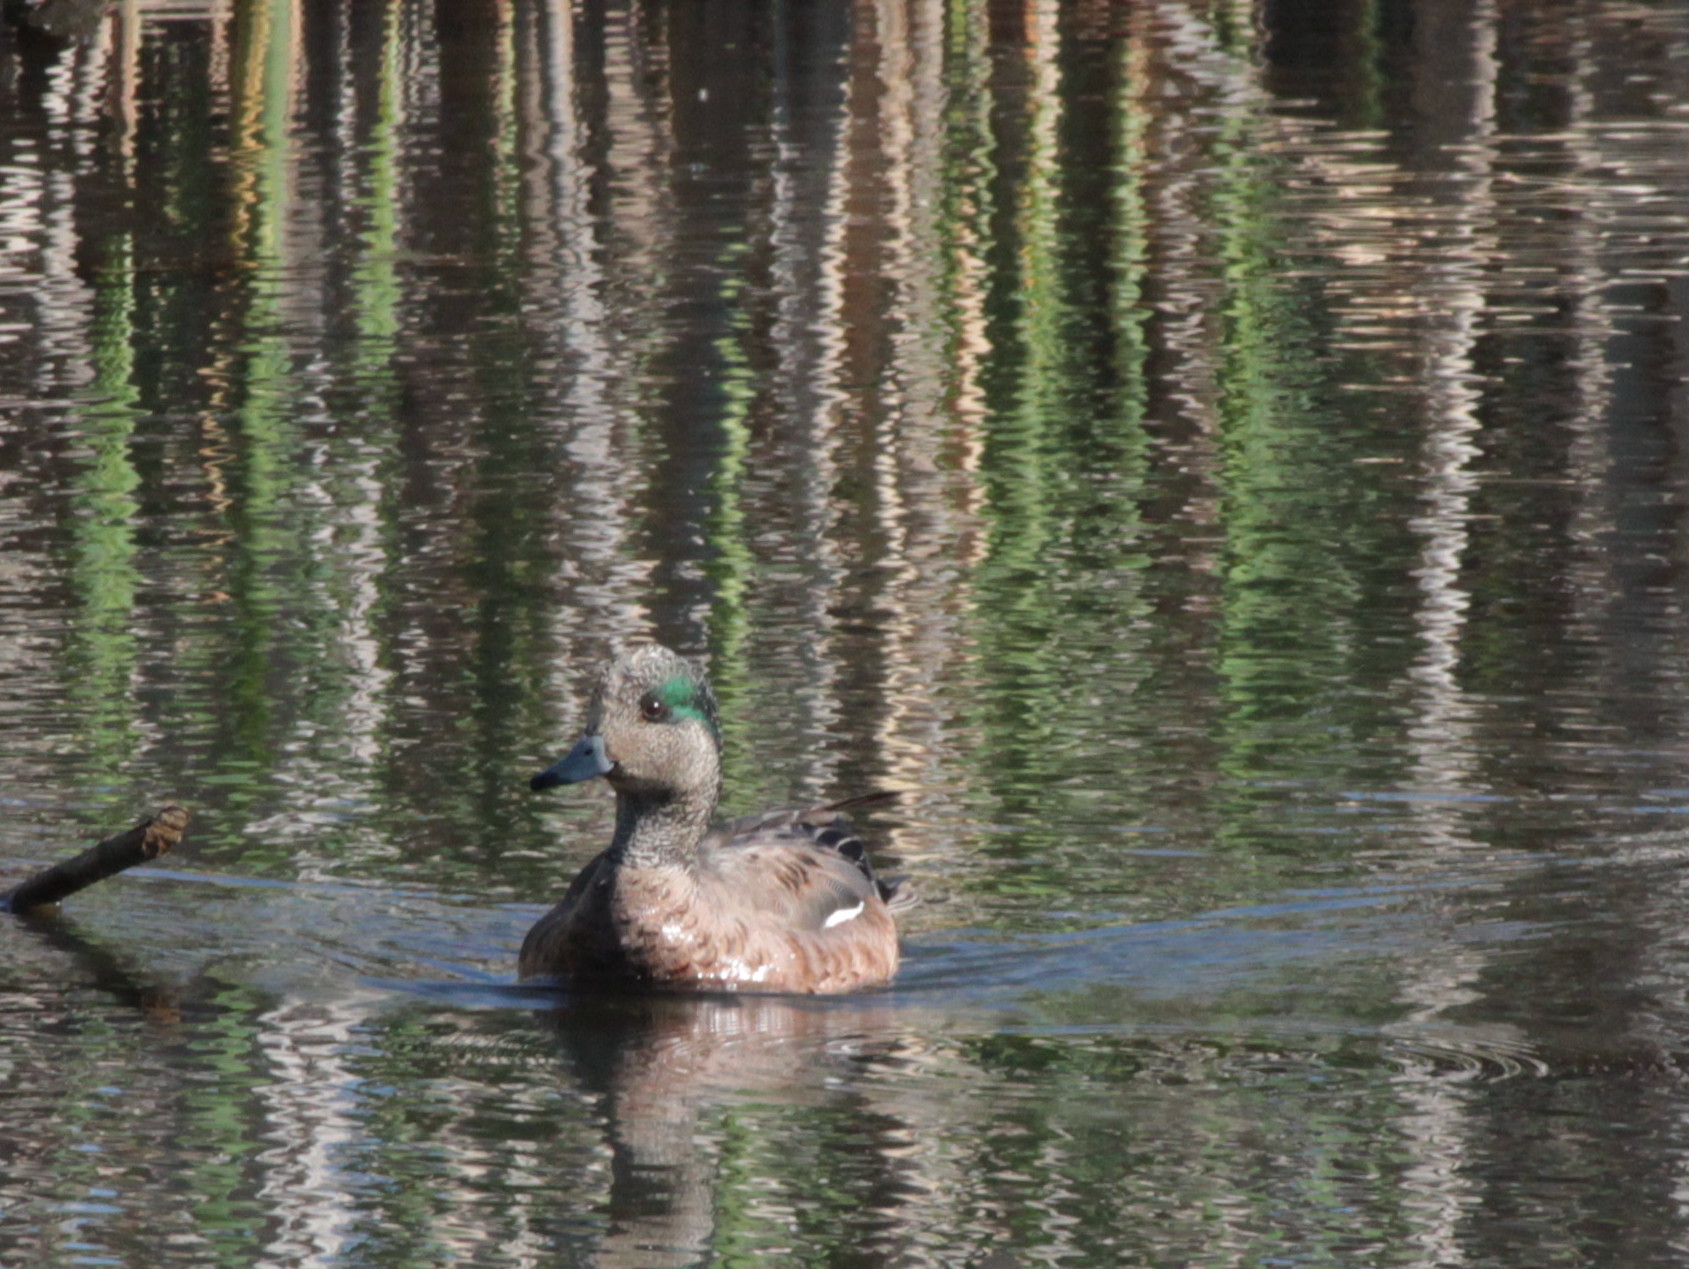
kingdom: Animalia
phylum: Chordata
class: Aves
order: Anseriformes
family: Anatidae
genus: Mareca
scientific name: Mareca americana
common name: American wigeon
